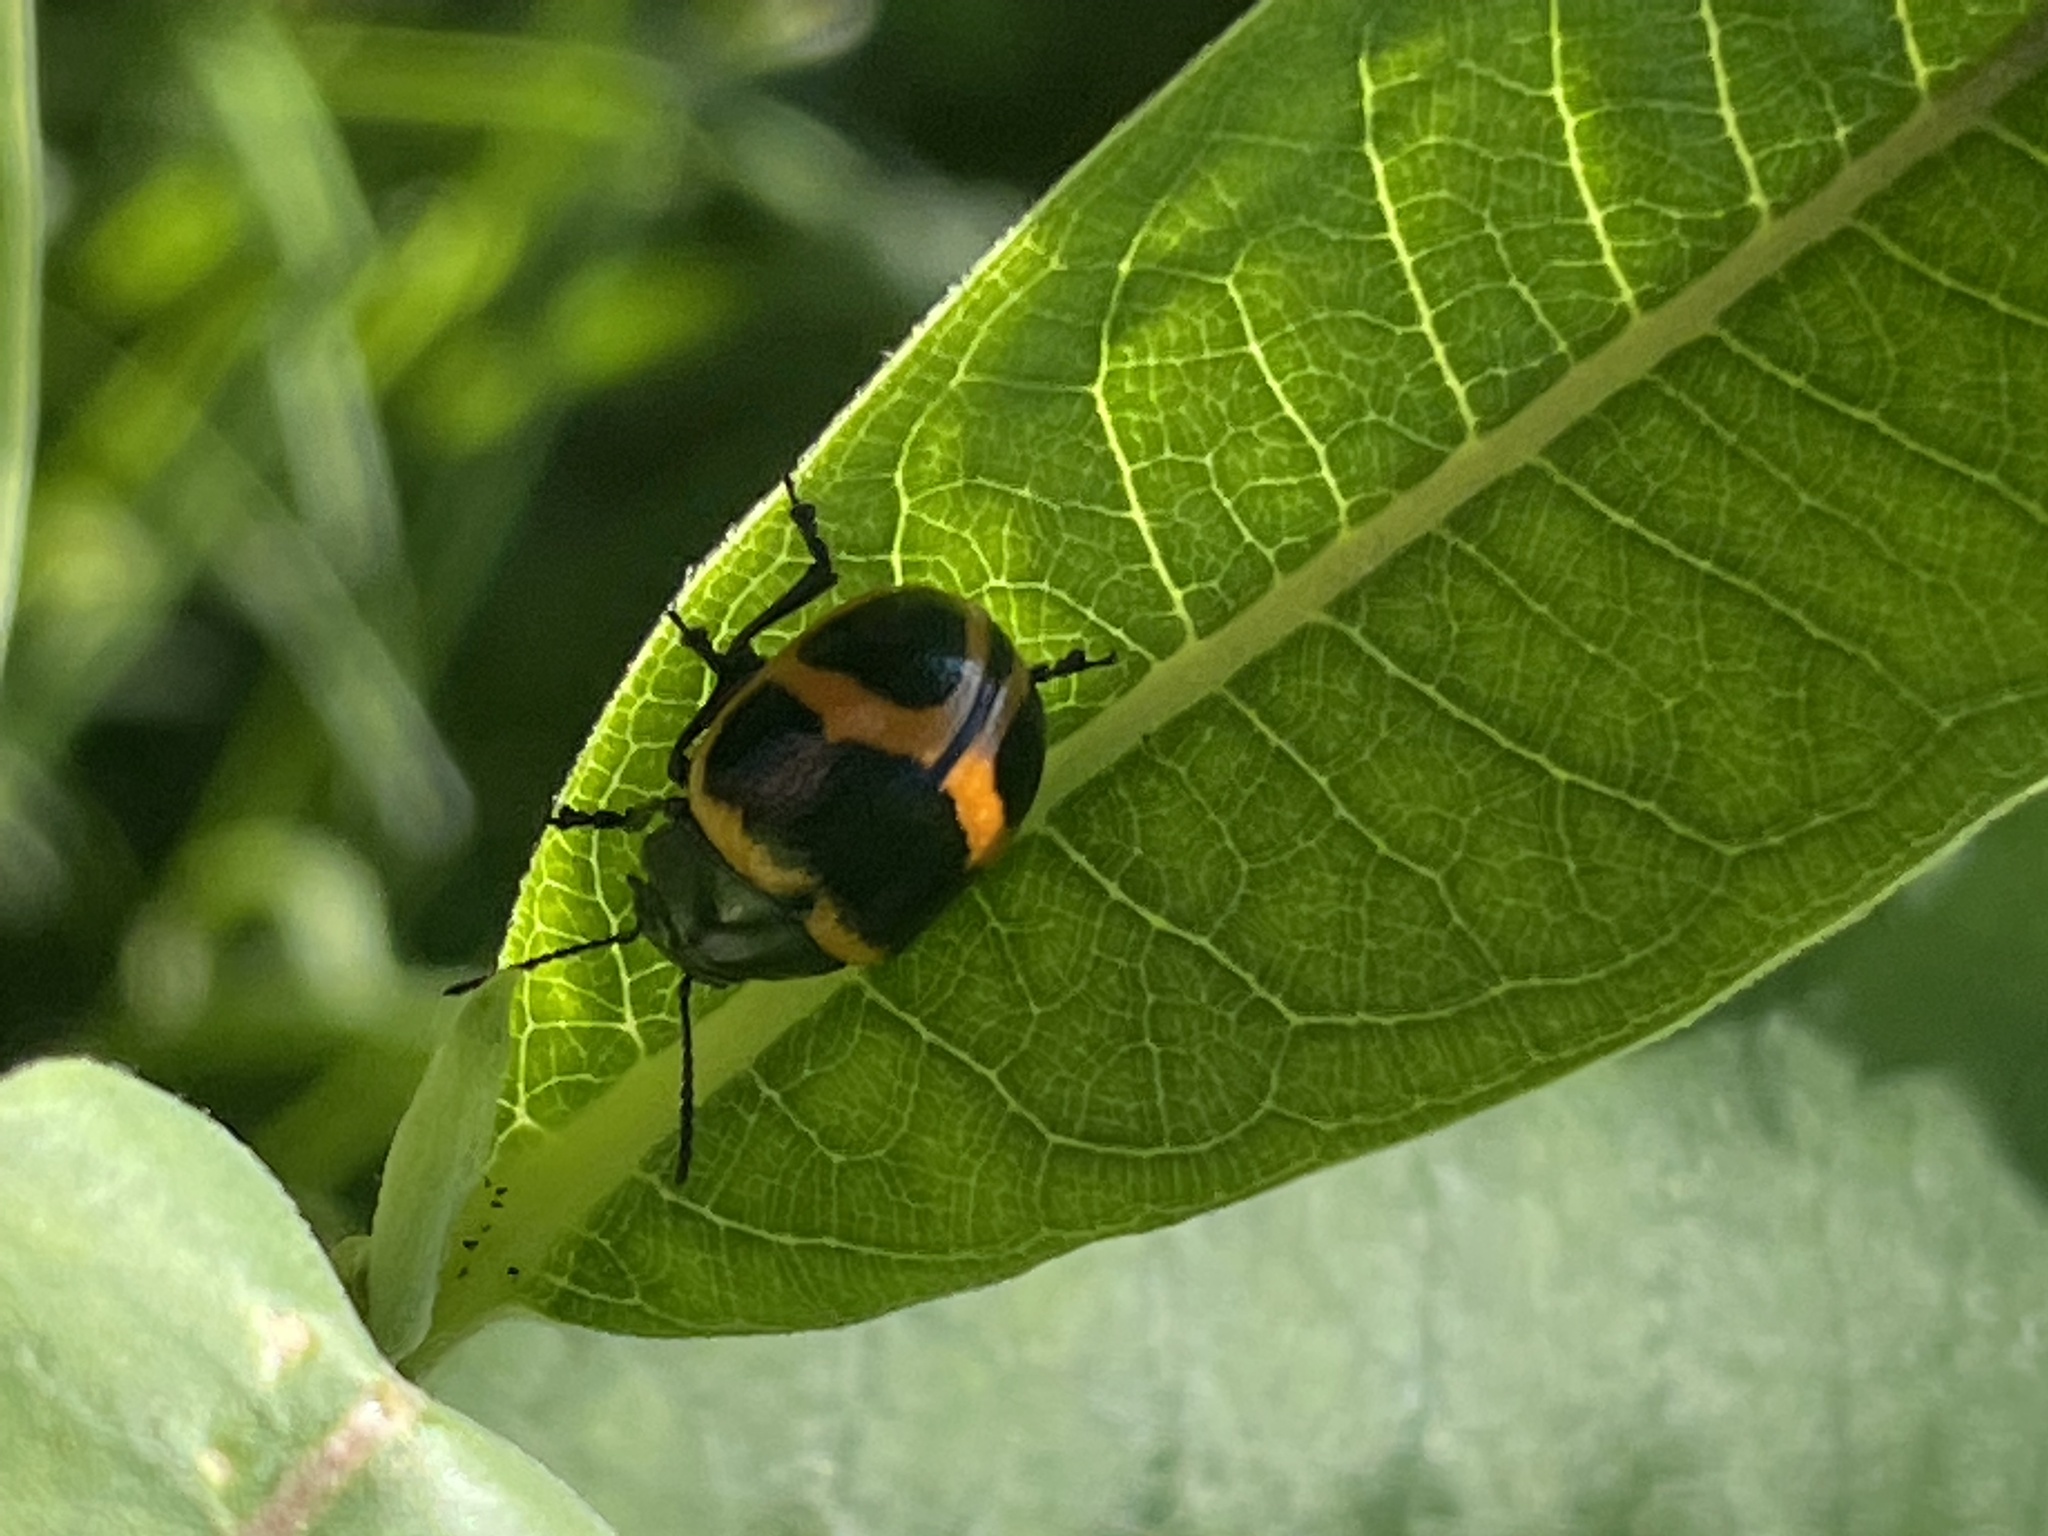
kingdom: Animalia
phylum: Arthropoda
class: Insecta
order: Coleoptera
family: Chrysomelidae
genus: Labidomera
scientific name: Labidomera clivicollis
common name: Swamp milkweed leaf beetle
